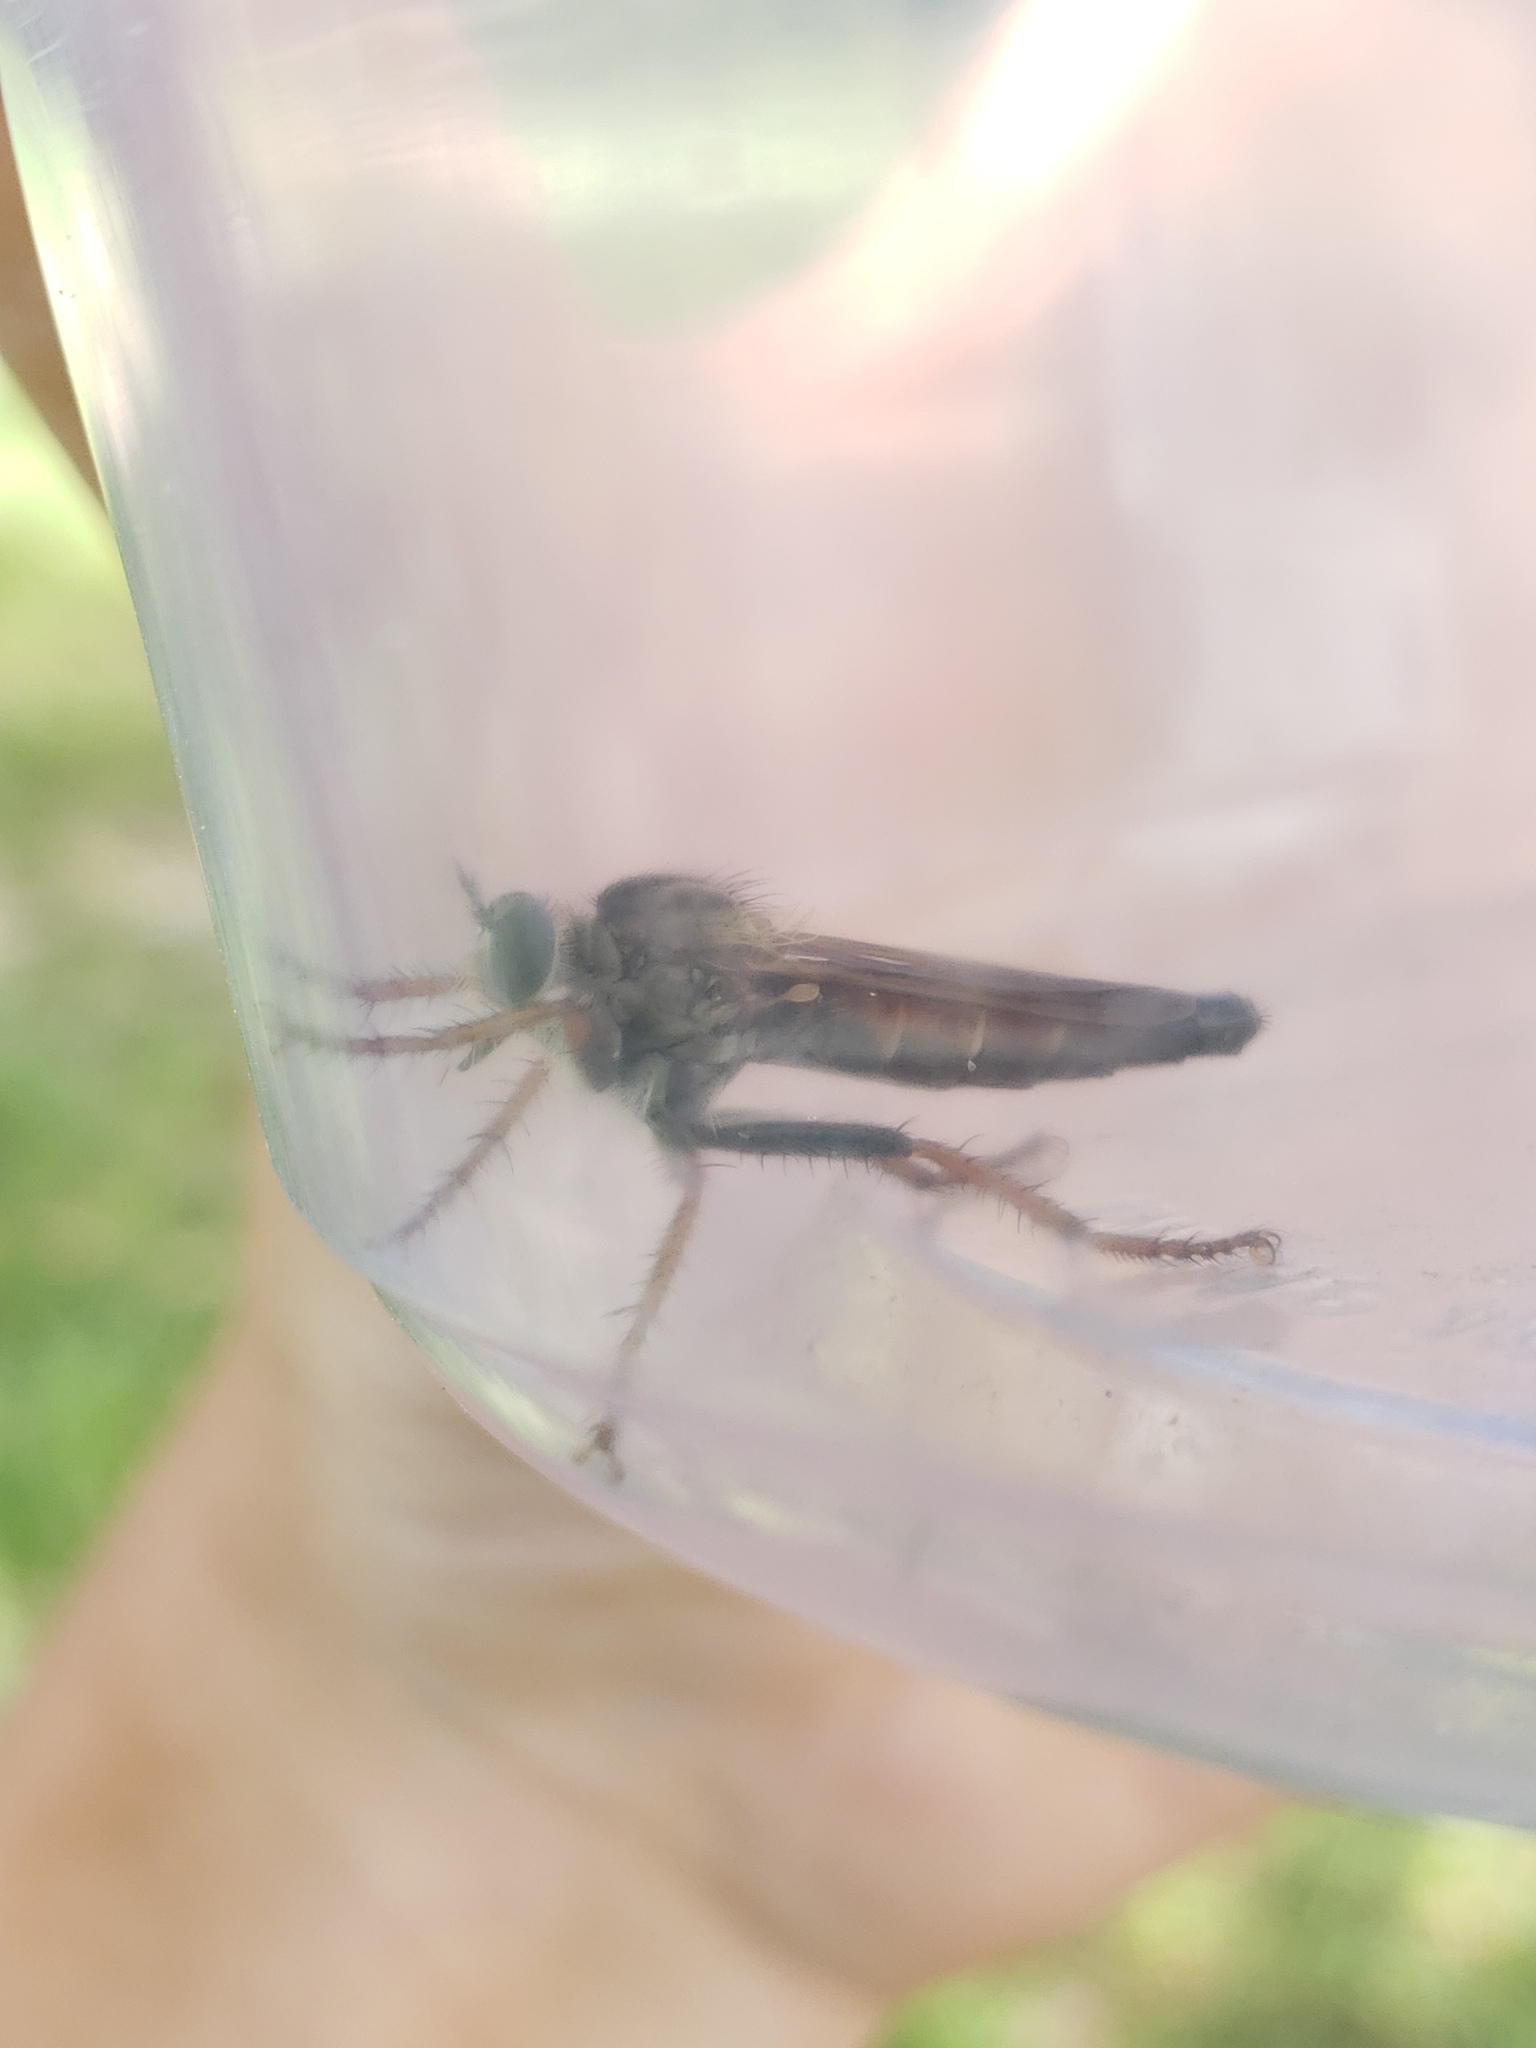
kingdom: Animalia
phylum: Arthropoda
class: Insecta
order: Diptera
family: Asilidae
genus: Scleropogon
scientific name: Scleropogon floridensis
